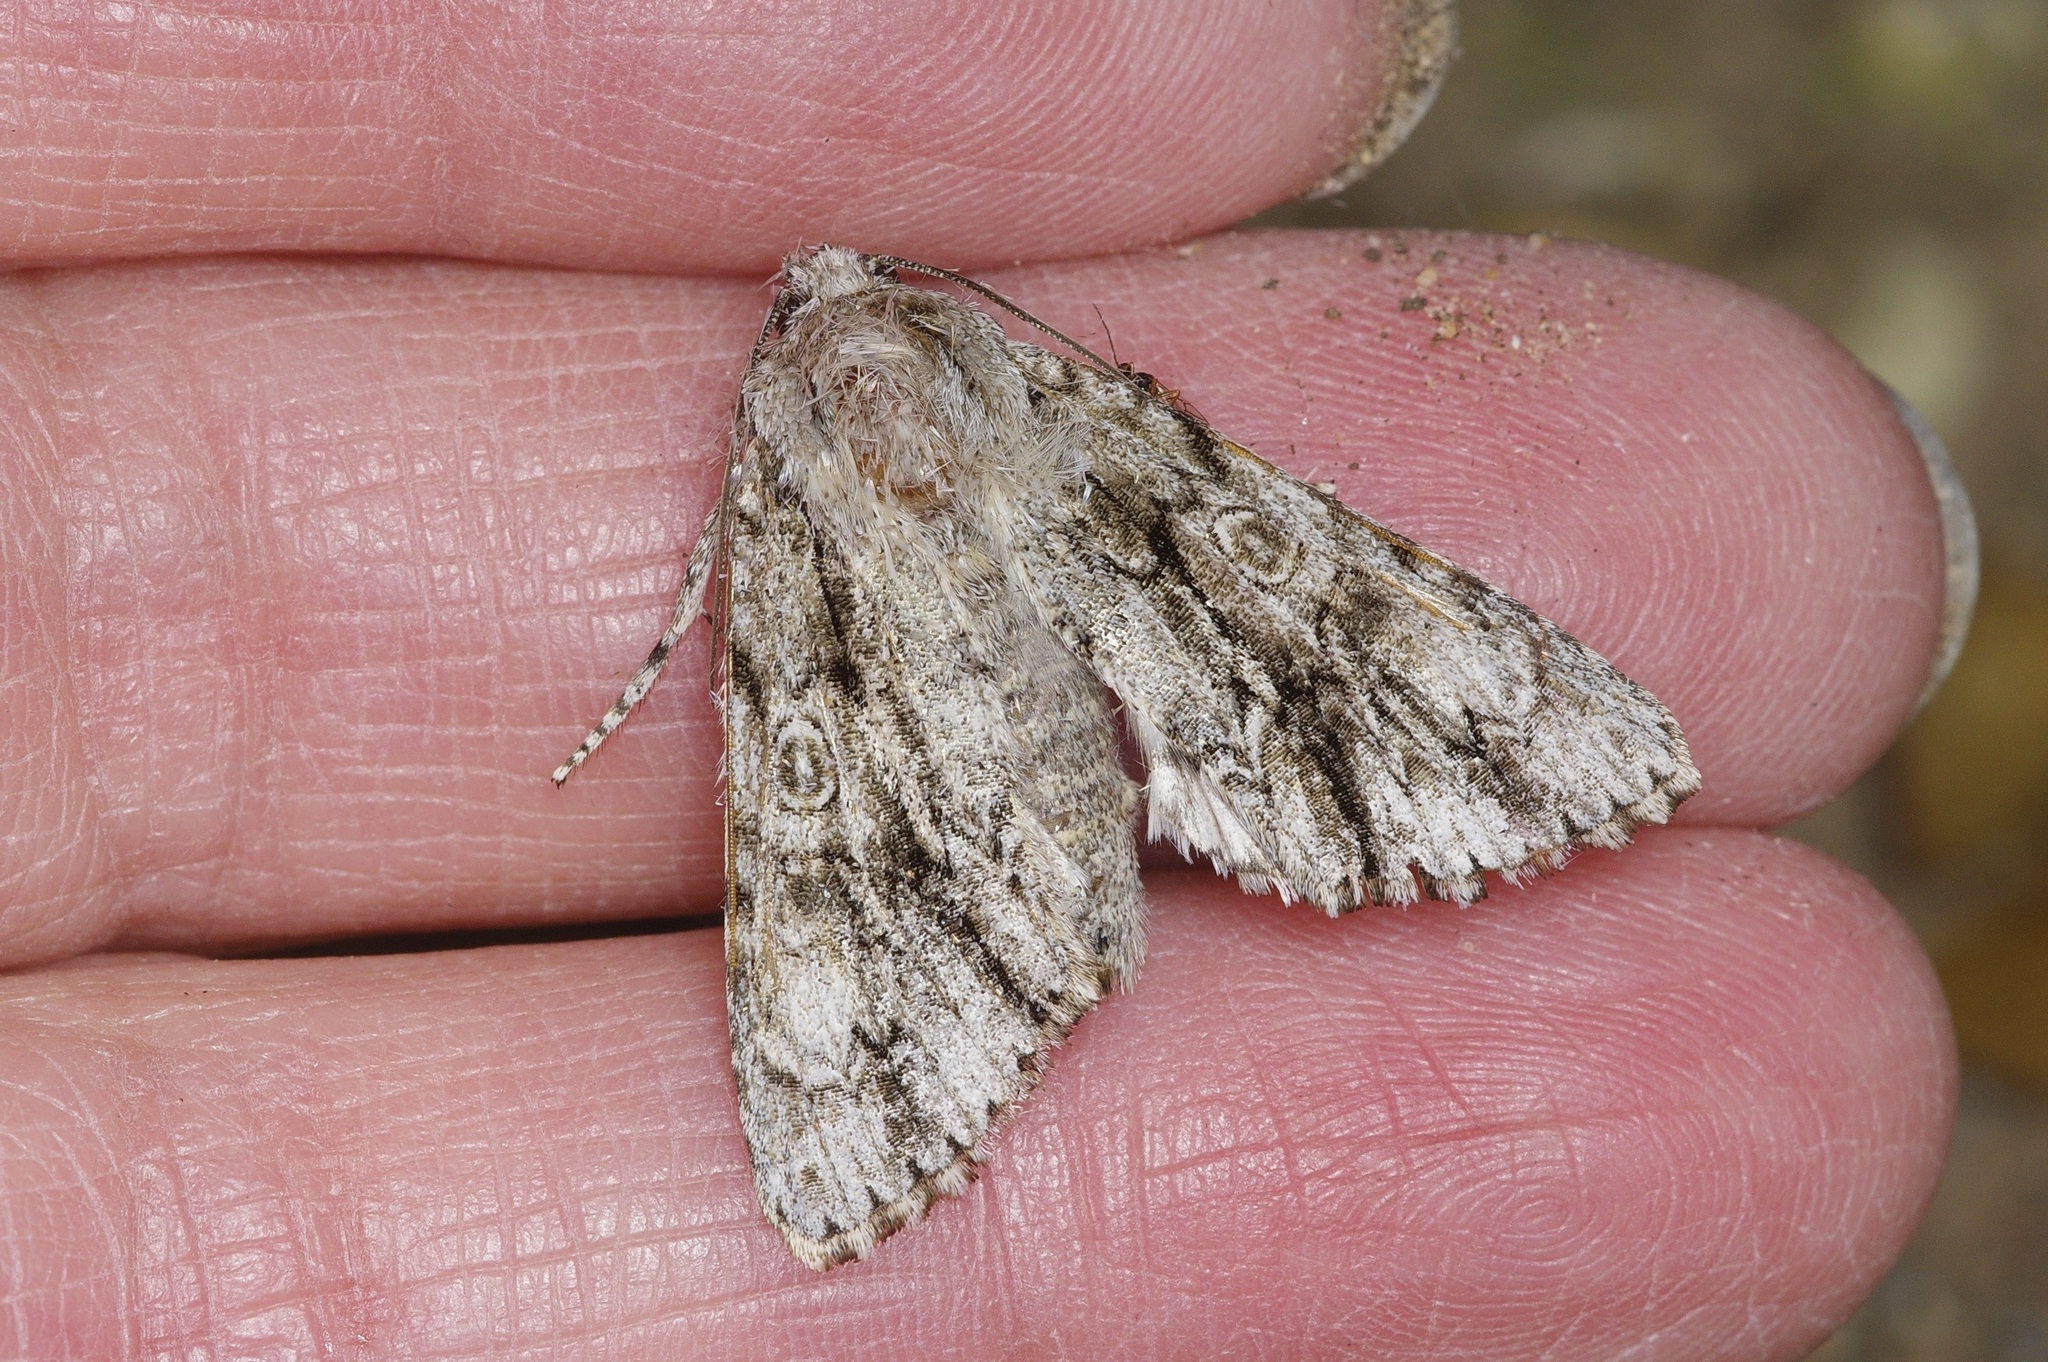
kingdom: Animalia
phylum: Arthropoda
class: Insecta
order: Lepidoptera
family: Noctuidae
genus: Acronicta
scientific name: Acronicta atristrigatus
